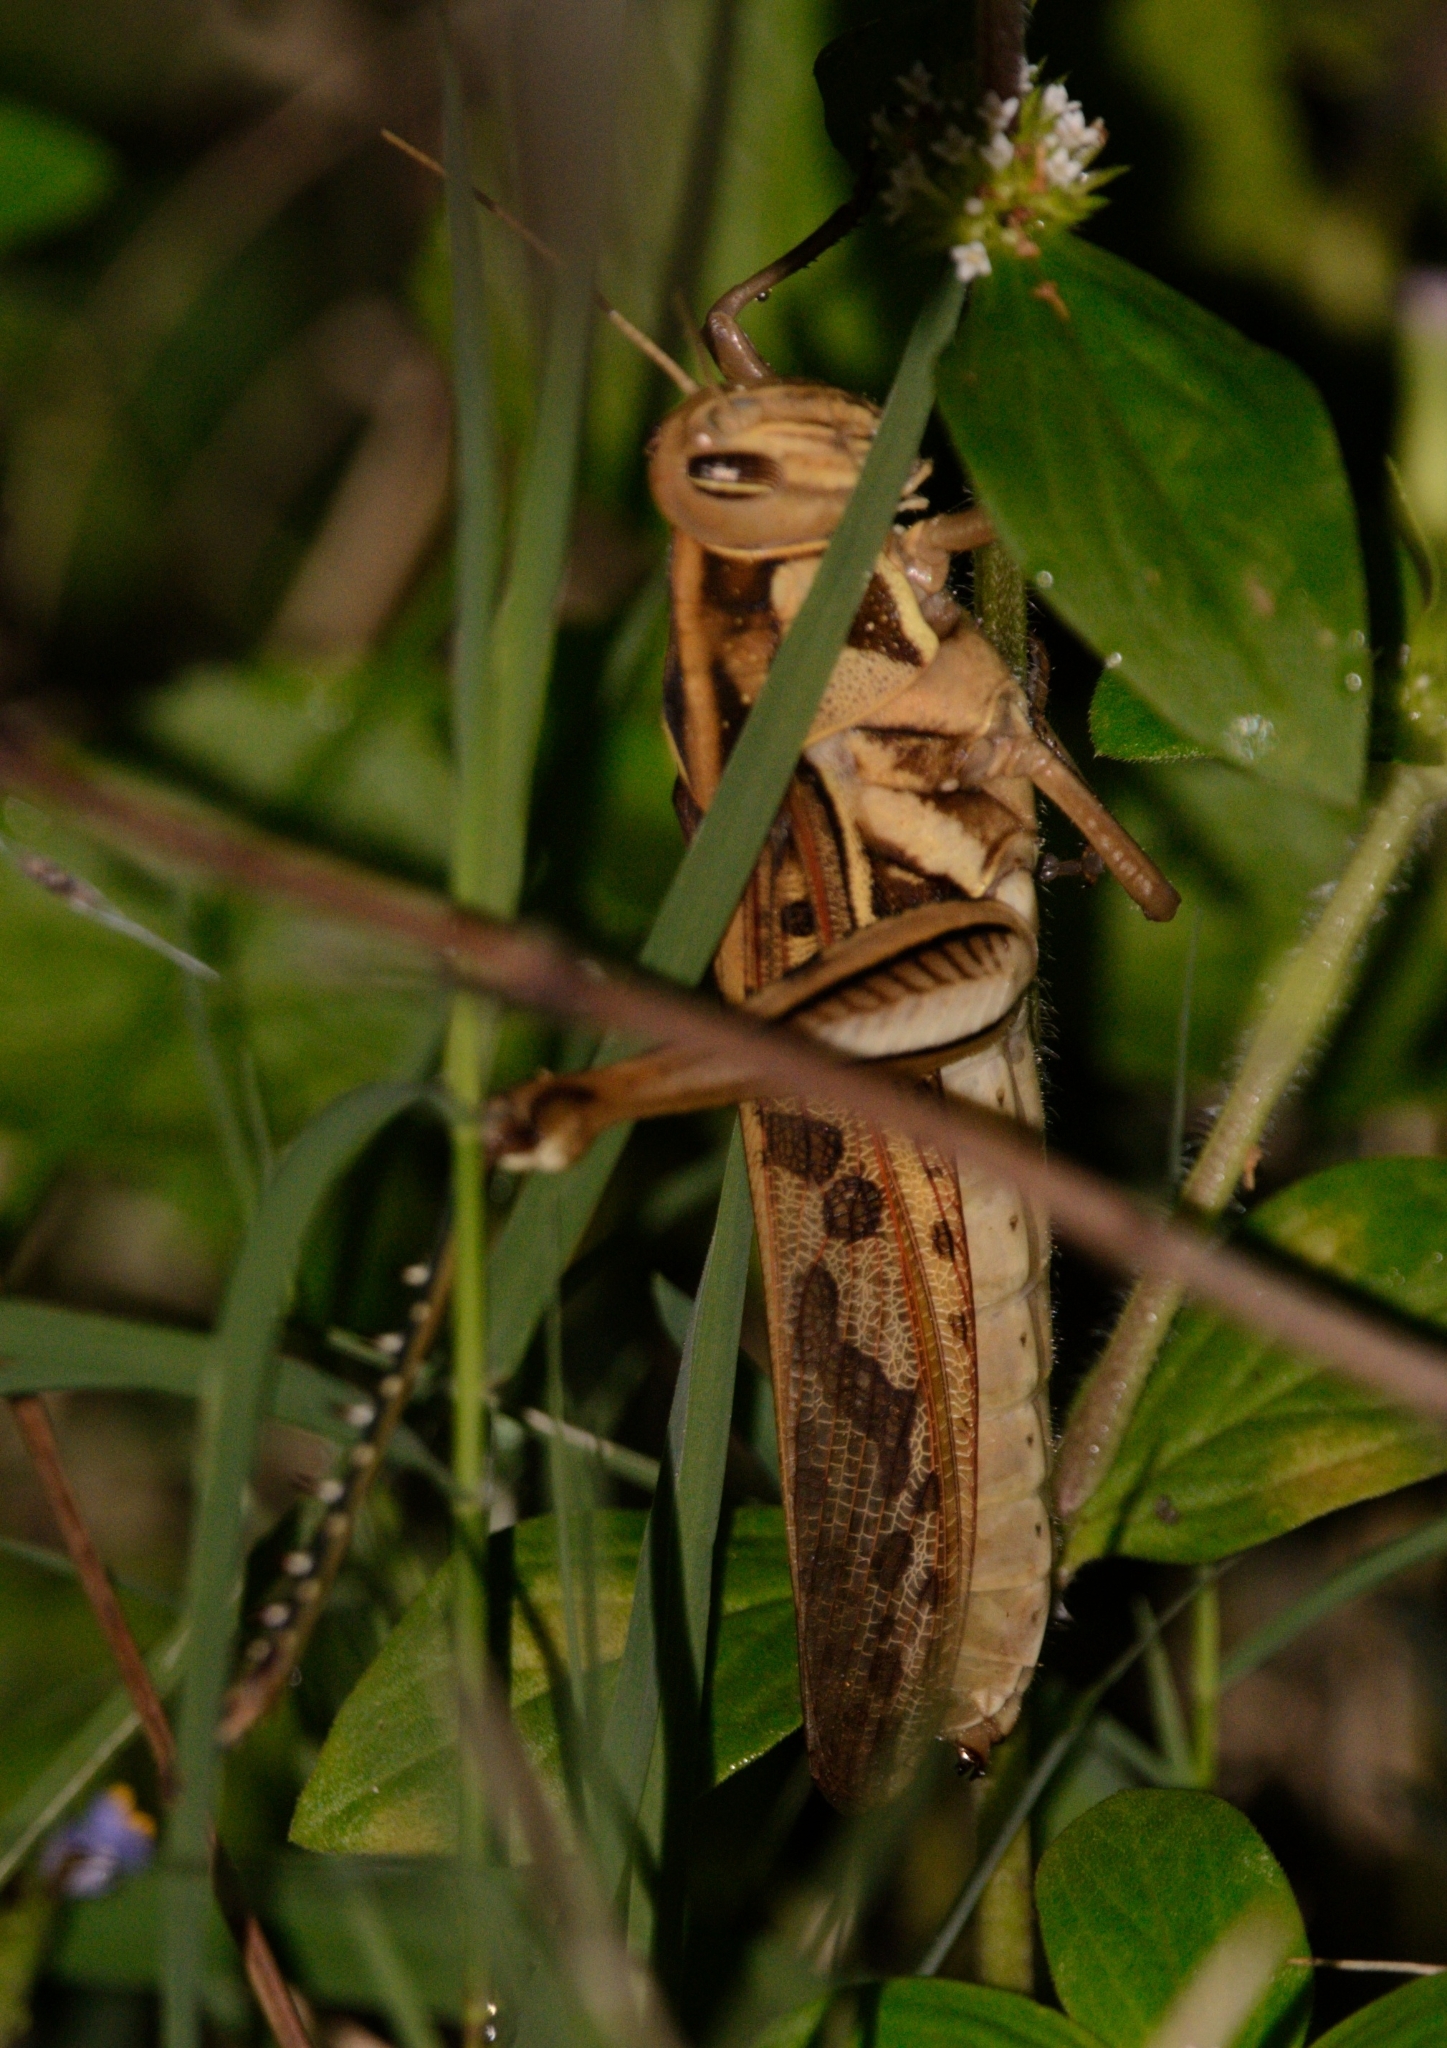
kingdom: Animalia
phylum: Arthropoda
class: Insecta
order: Orthoptera
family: Acrididae
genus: Cyrtacanthacris
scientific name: Cyrtacanthacris tatarica
